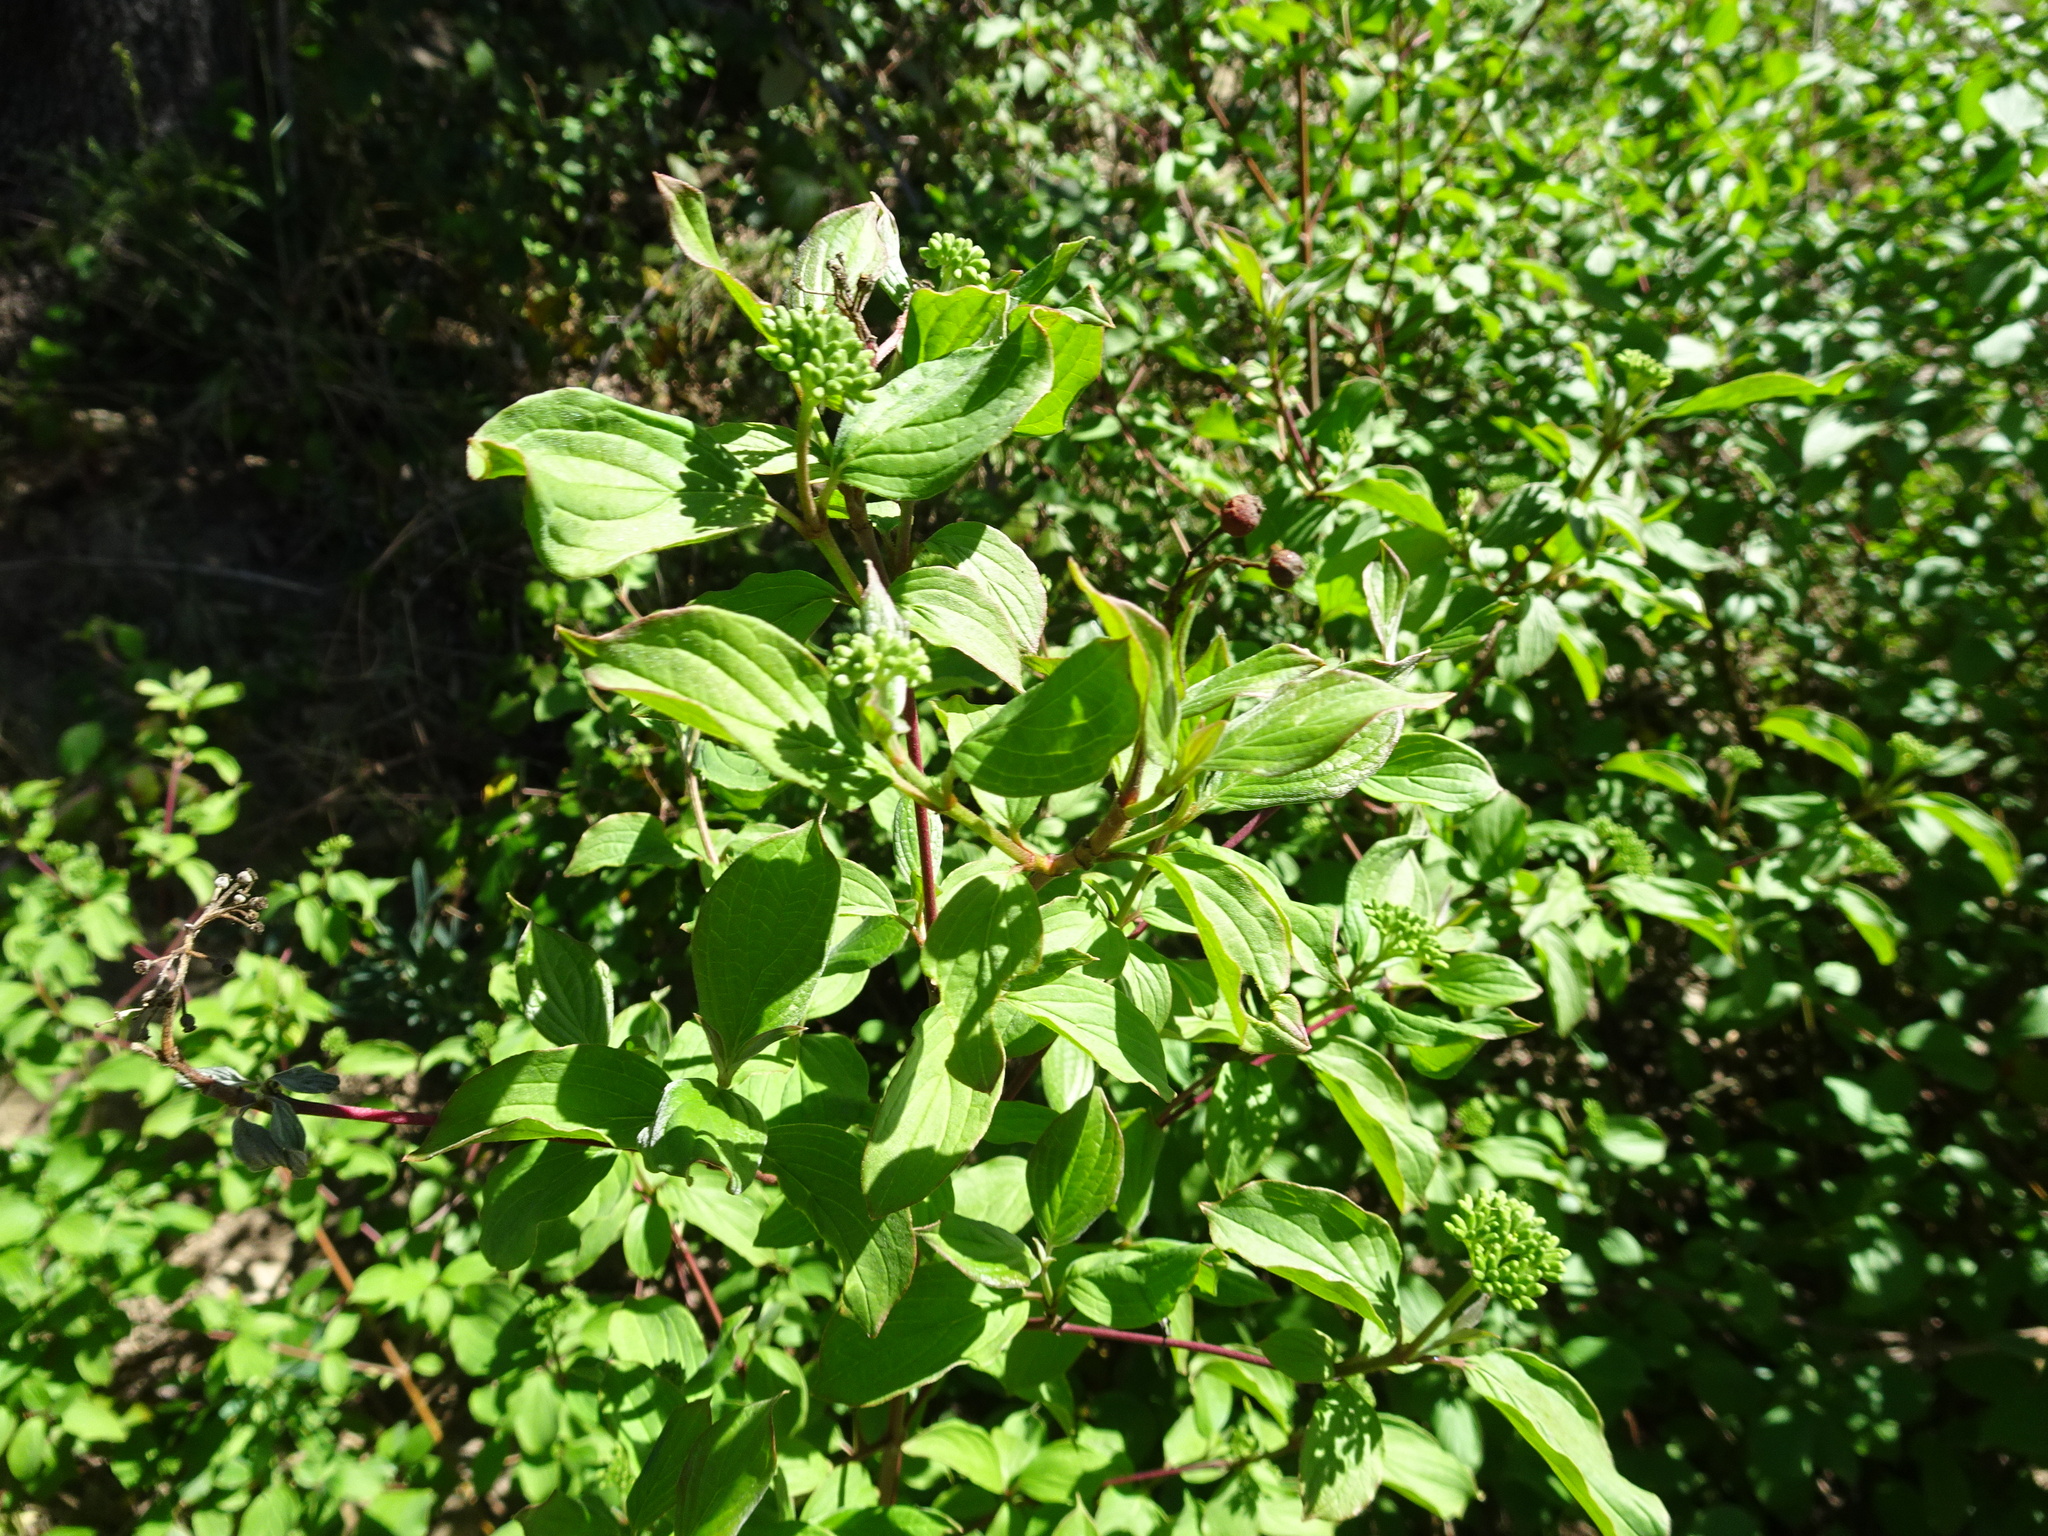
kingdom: Plantae
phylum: Tracheophyta
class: Magnoliopsida
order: Cornales
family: Cornaceae
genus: Cornus
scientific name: Cornus sanguinea
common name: Dogwood
